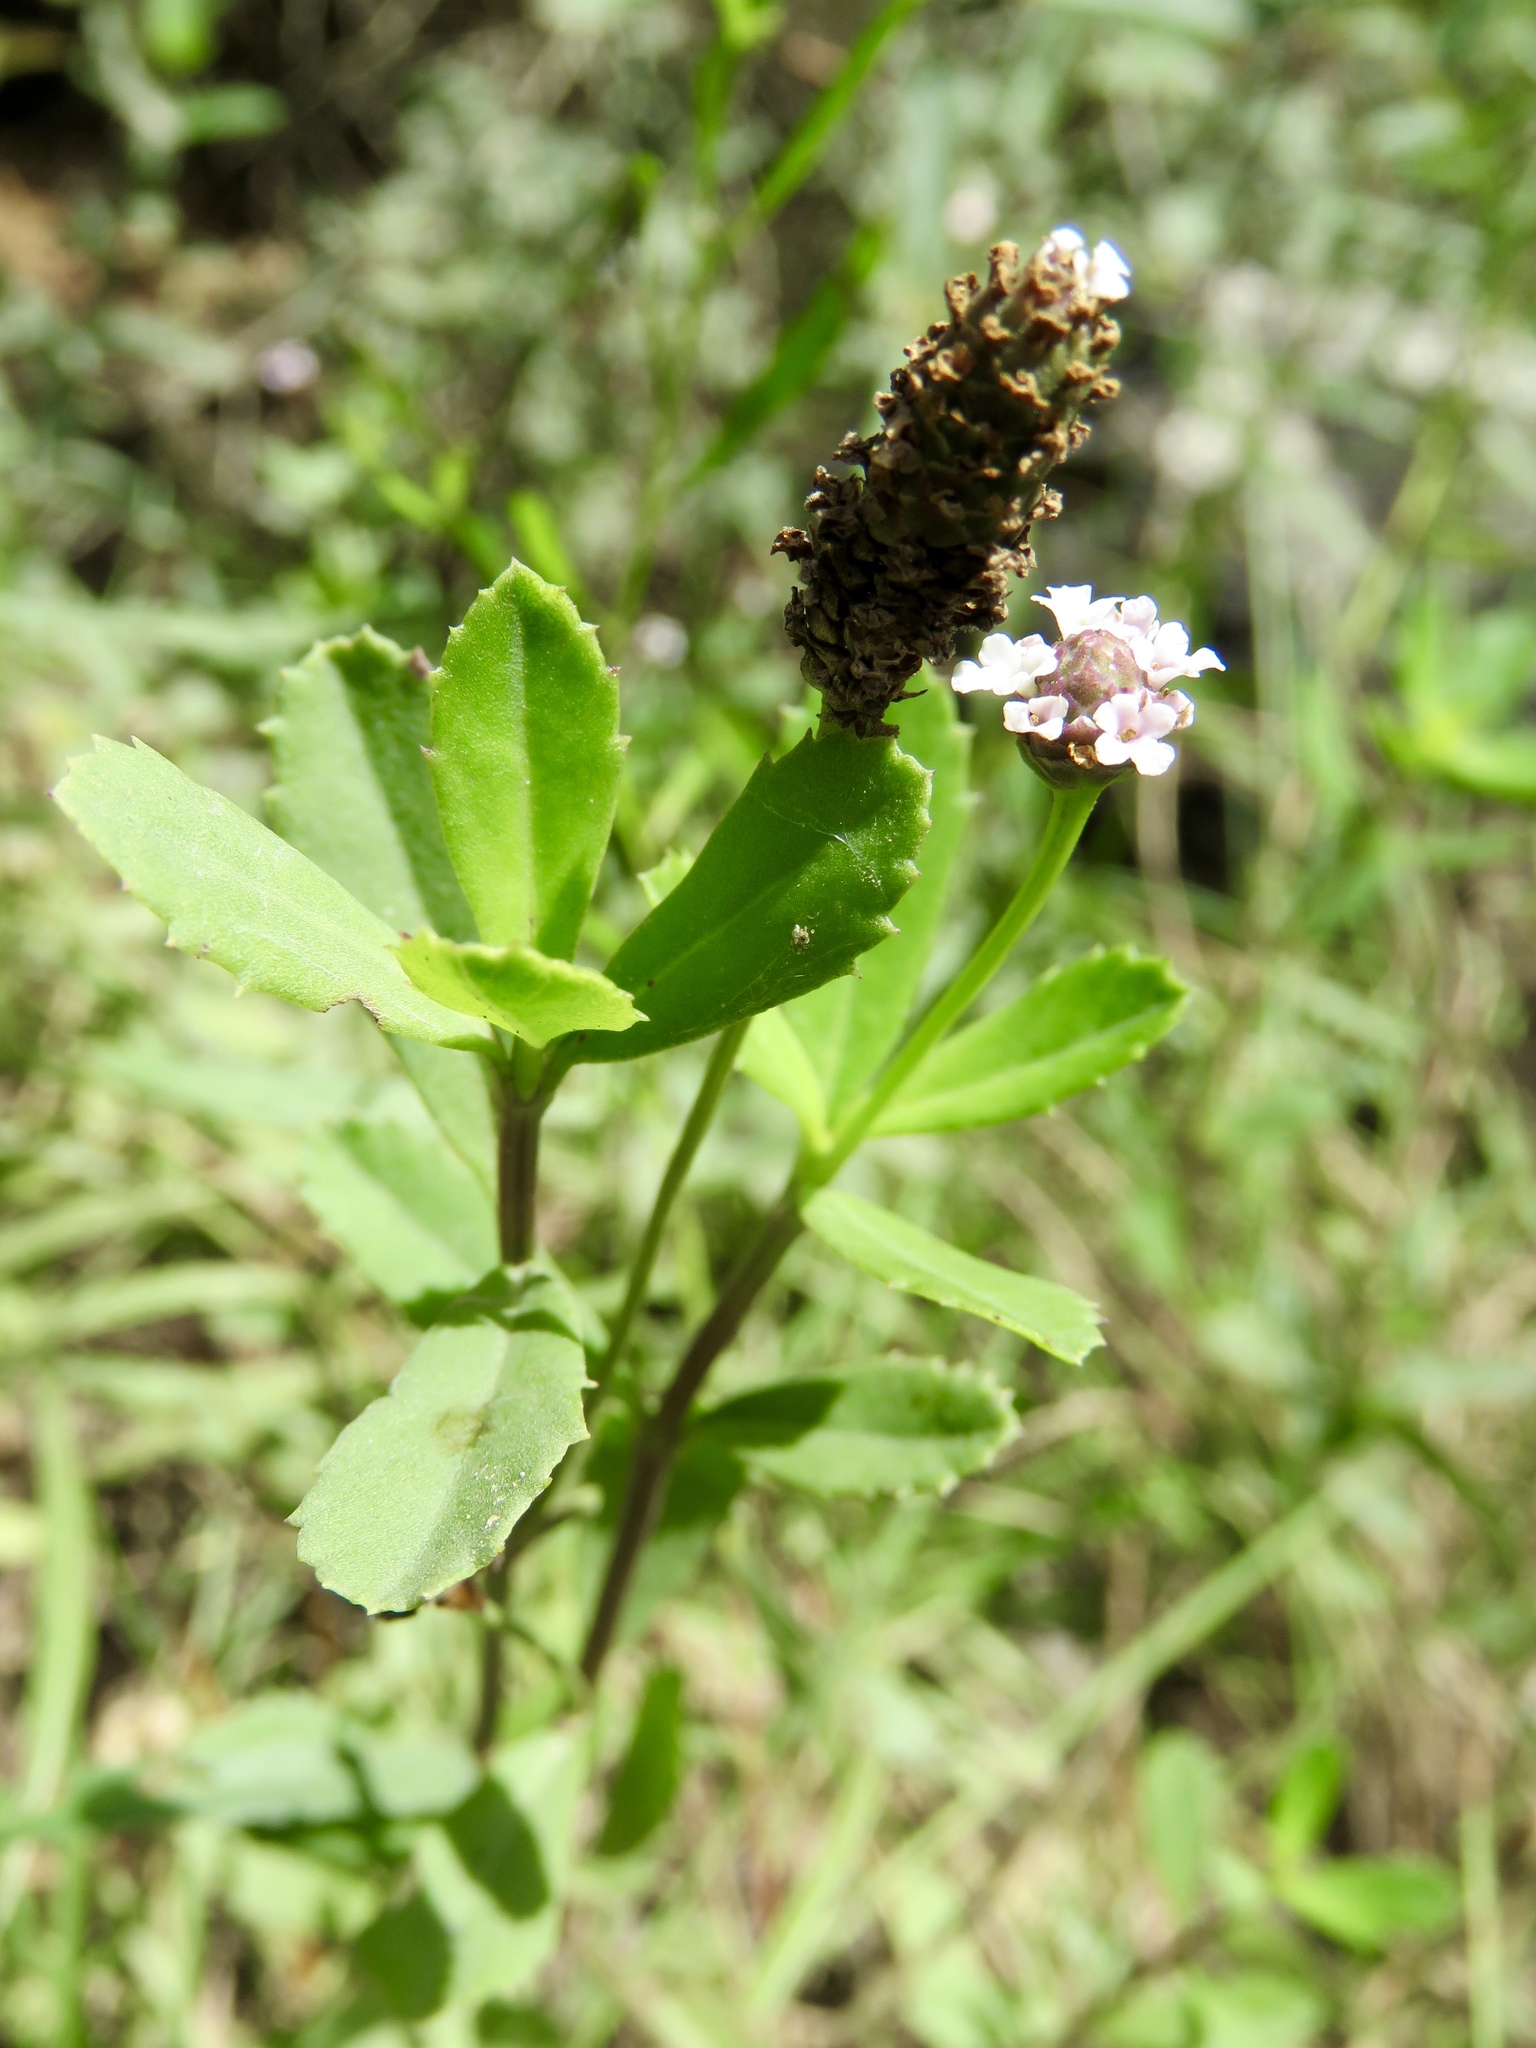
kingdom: Plantae
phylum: Tracheophyta
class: Magnoliopsida
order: Lamiales
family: Verbenaceae
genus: Phyla
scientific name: Phyla nodiflora
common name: Frogfruit
